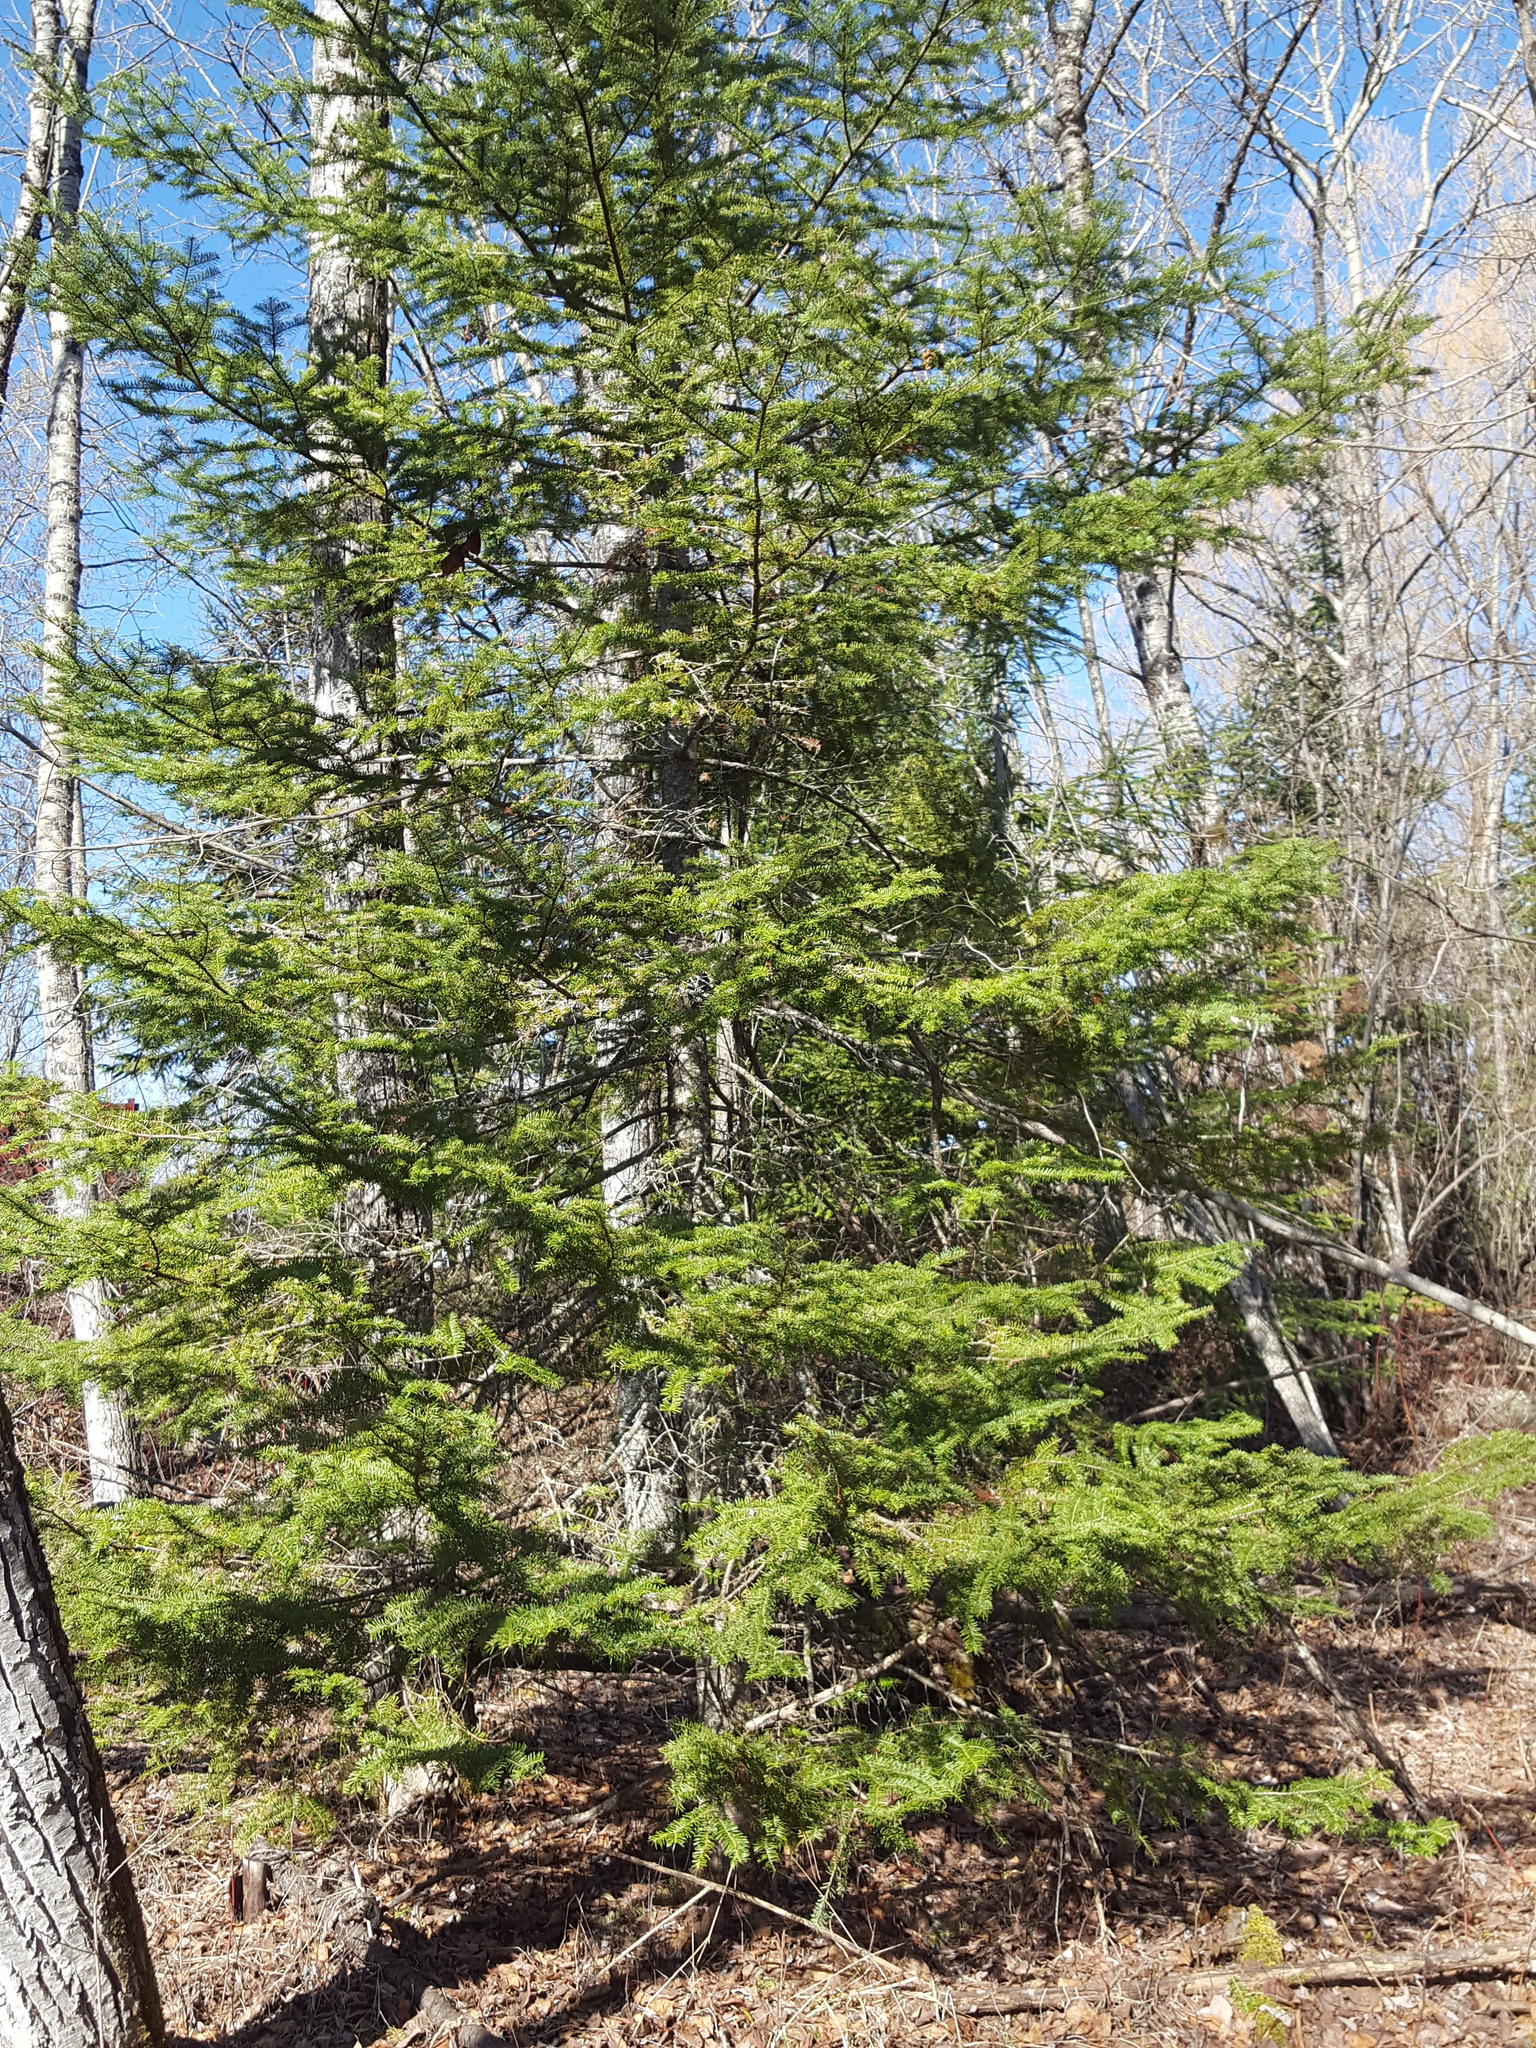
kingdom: Plantae
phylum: Tracheophyta
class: Pinopsida
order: Pinales
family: Pinaceae
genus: Abies
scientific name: Abies balsamea
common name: Balsam fir
